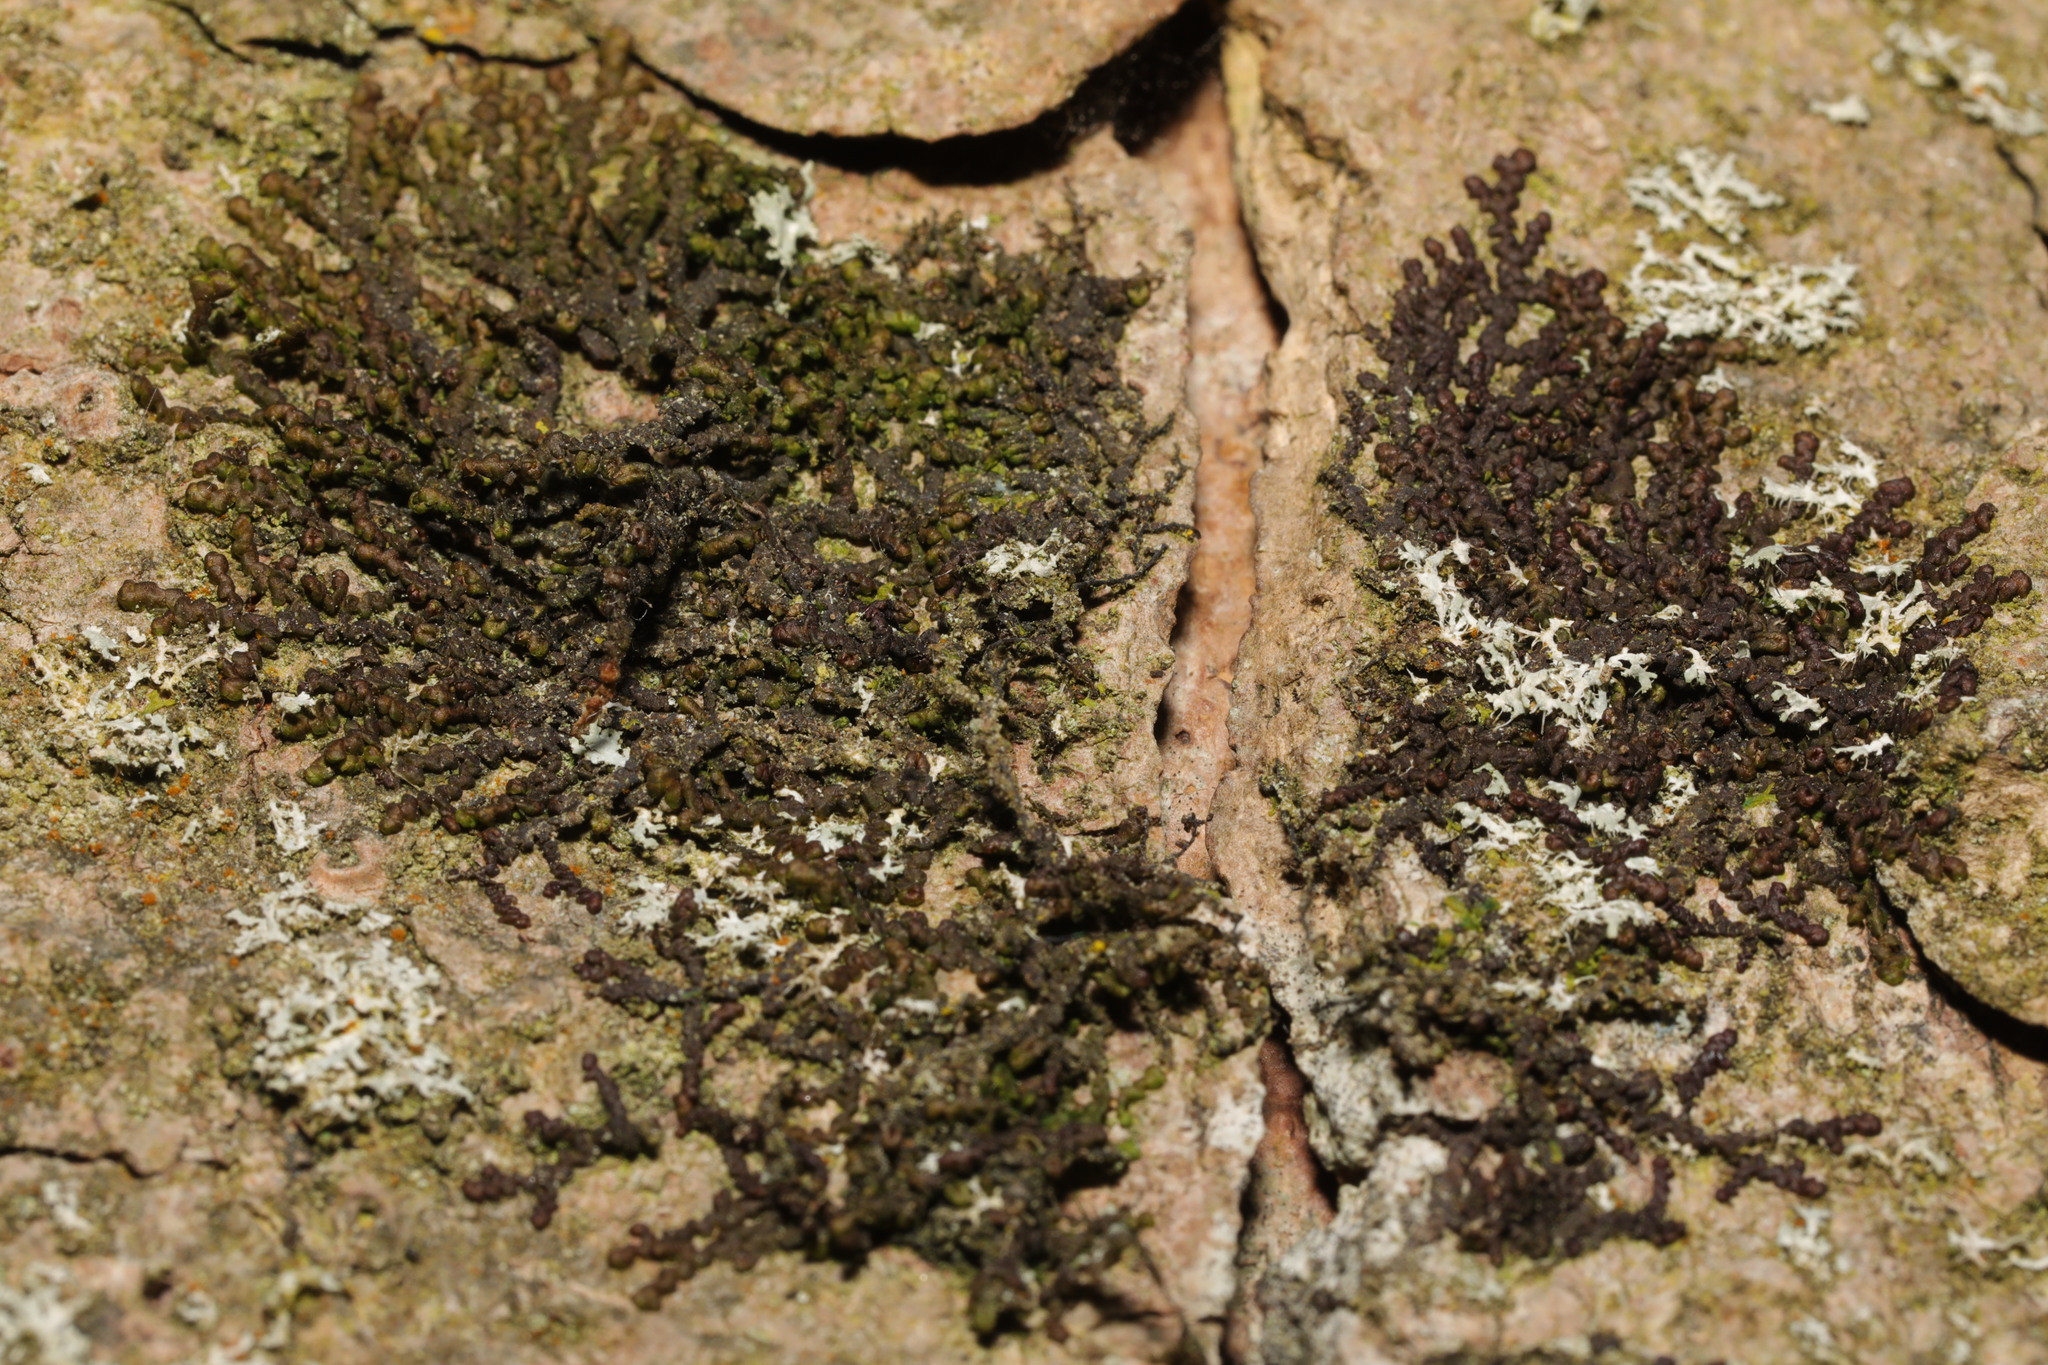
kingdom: Plantae
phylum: Marchantiophyta
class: Jungermanniopsida
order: Porellales
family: Frullaniaceae
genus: Frullania
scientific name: Frullania dilatata
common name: Dilated scalewort
